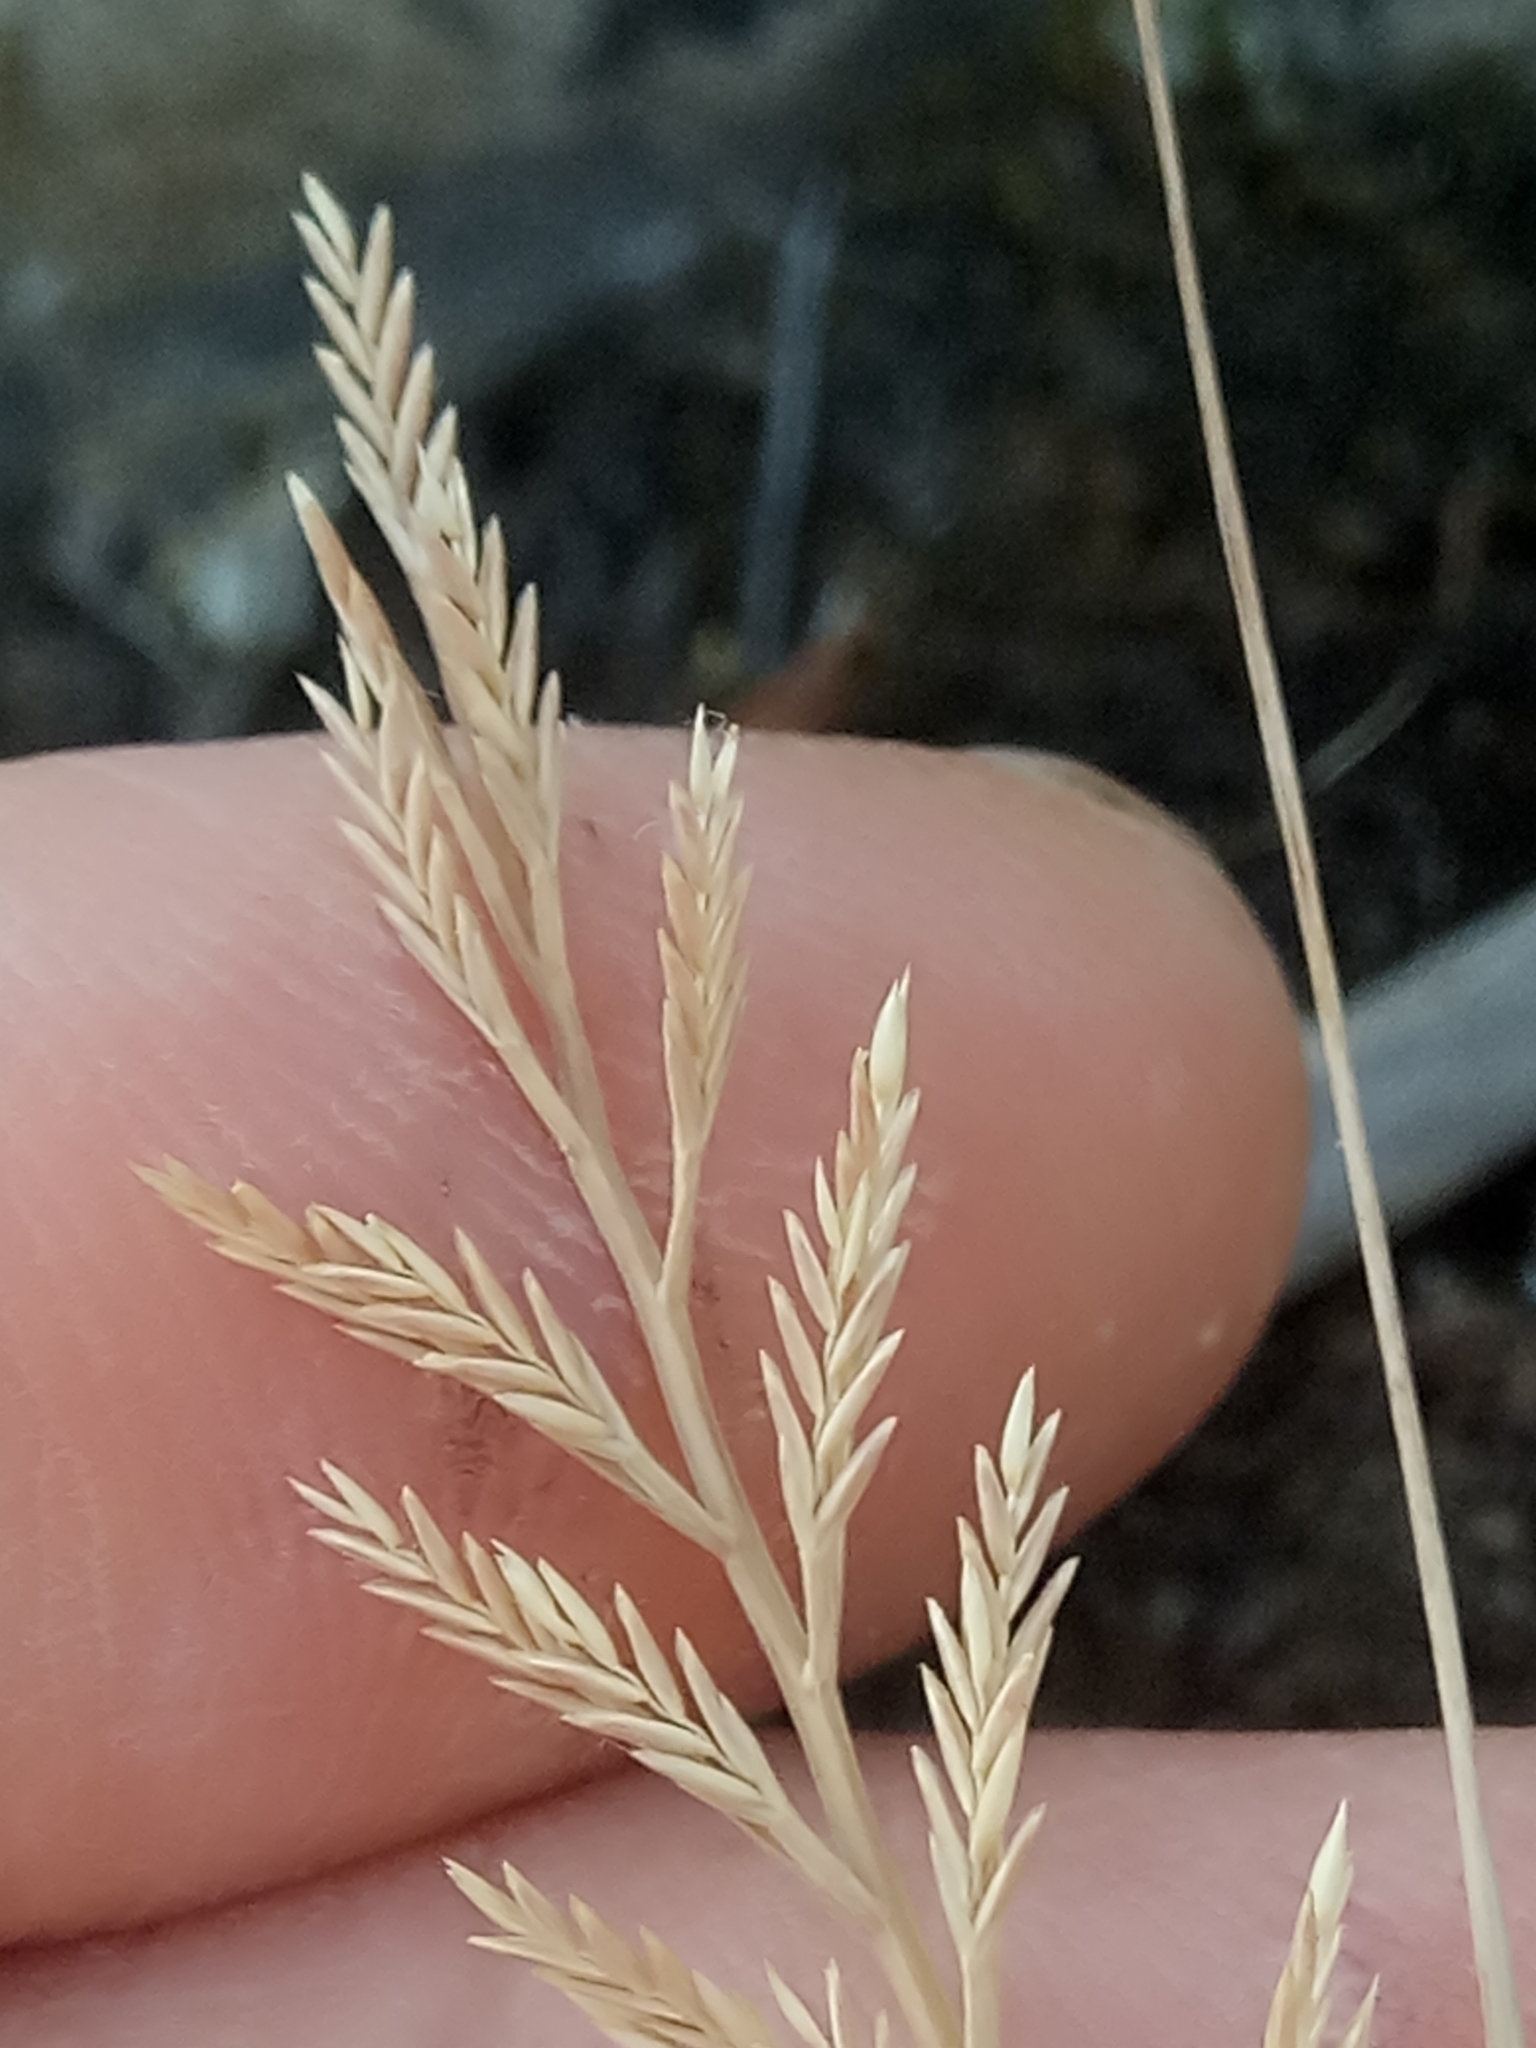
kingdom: Plantae
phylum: Tracheophyta
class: Liliopsida
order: Poales
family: Poaceae
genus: Catapodium
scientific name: Catapodium rigidum
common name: Fern-grass
